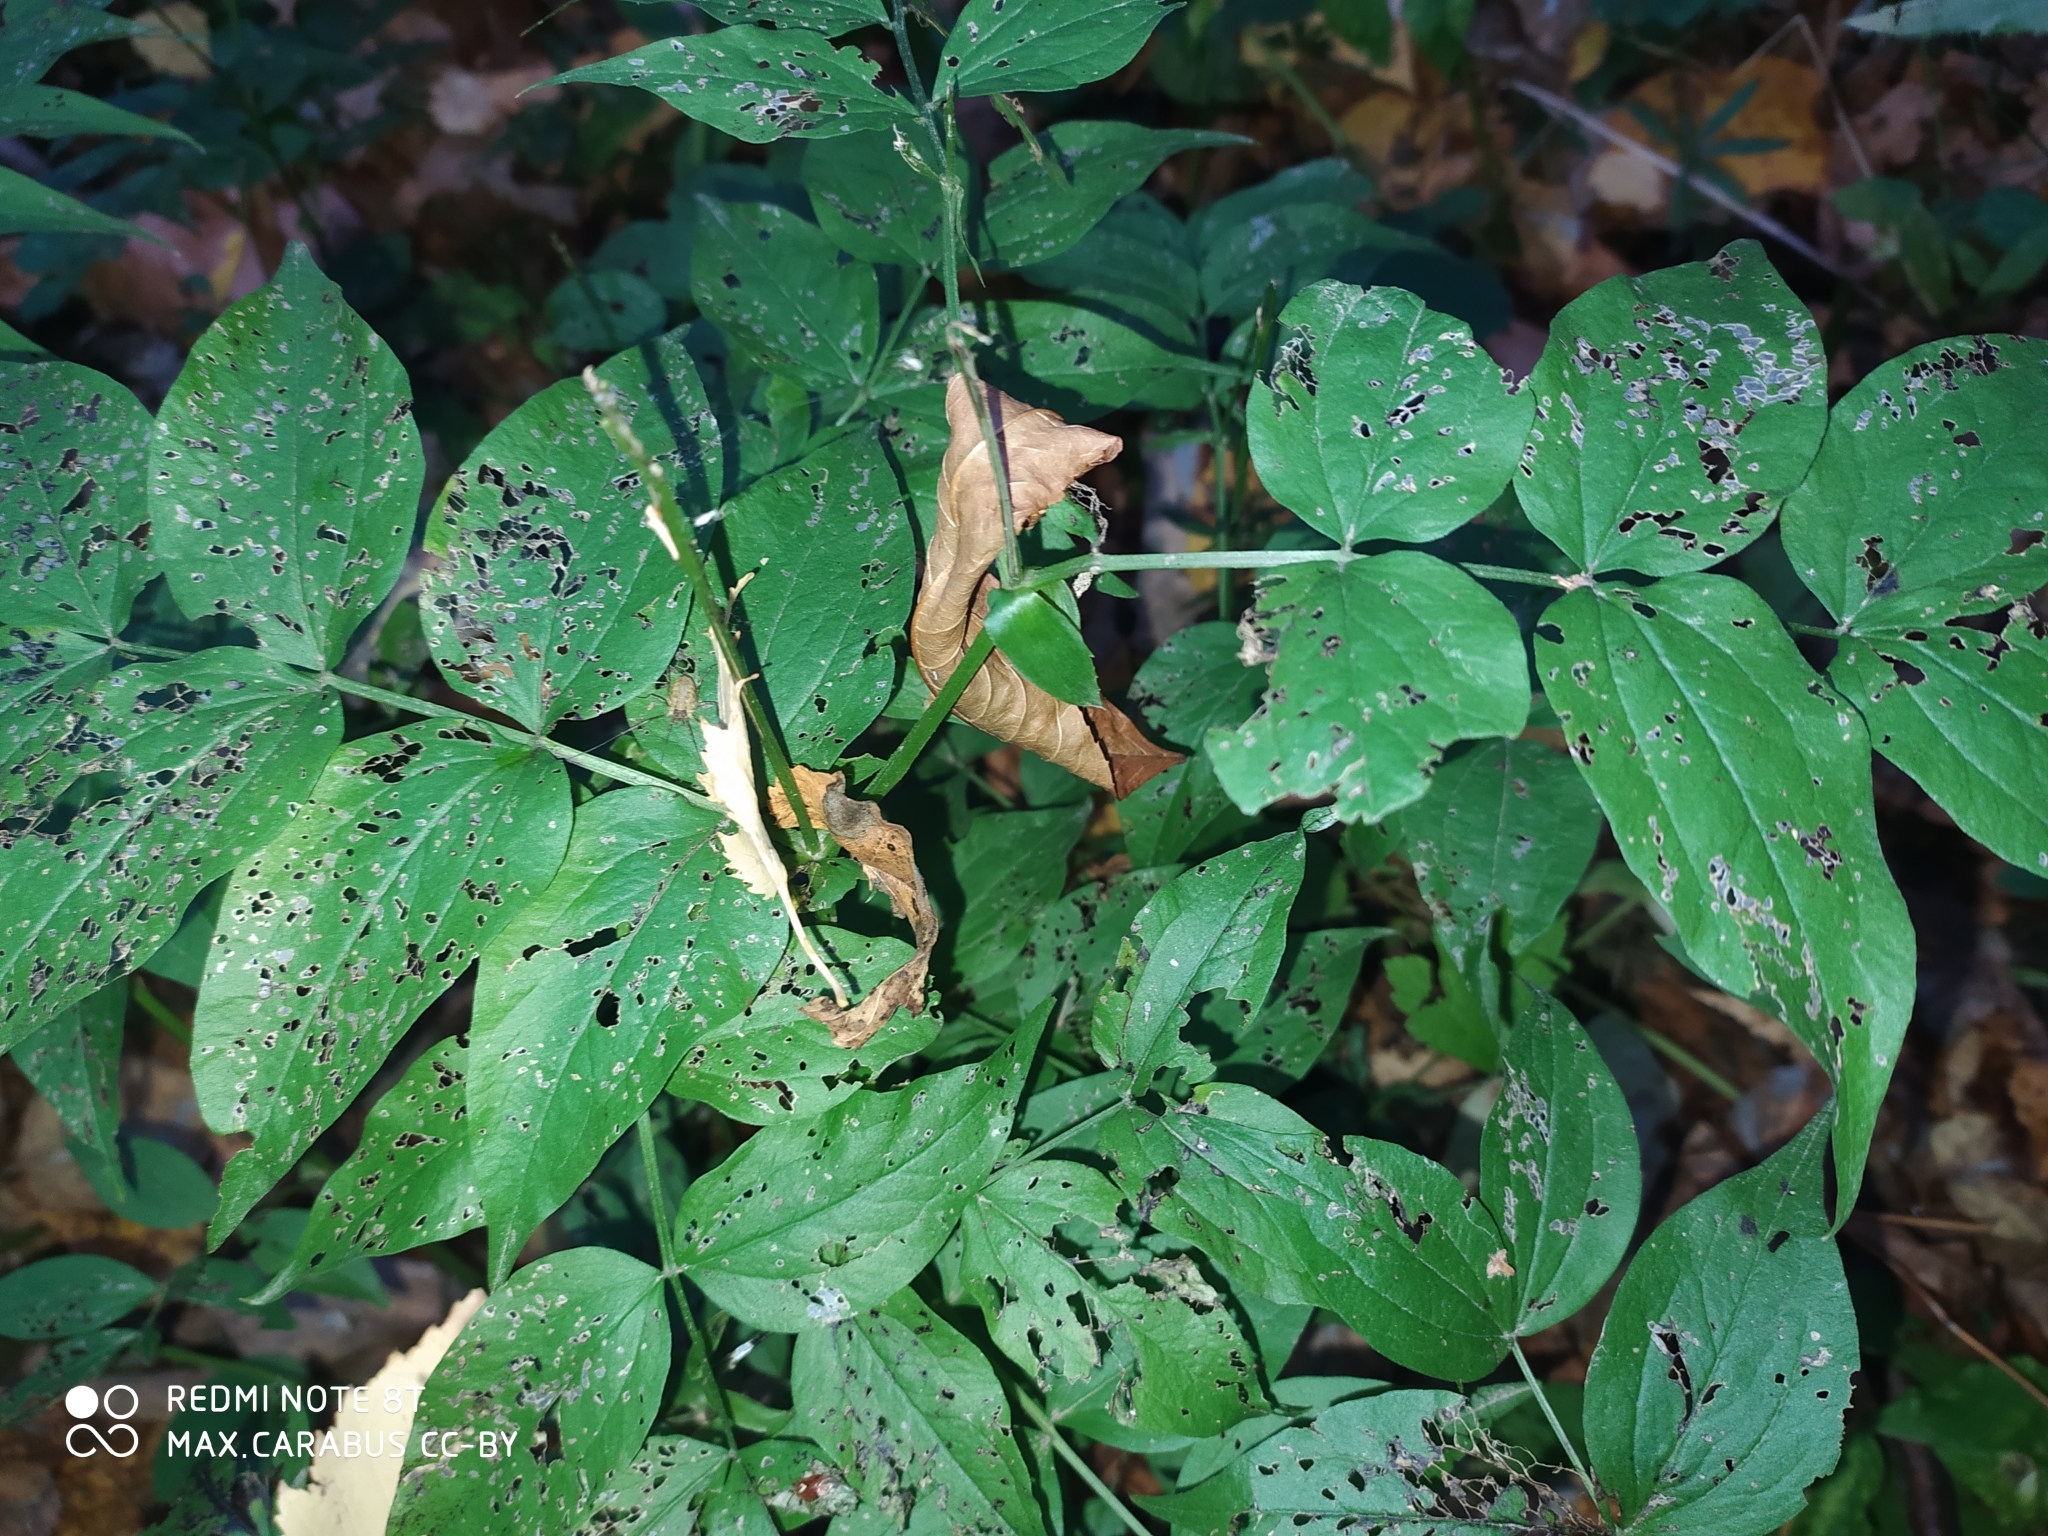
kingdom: Plantae
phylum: Tracheophyta
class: Magnoliopsida
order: Fabales
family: Fabaceae
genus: Lathyrus
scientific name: Lathyrus vernus
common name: Spring pea
